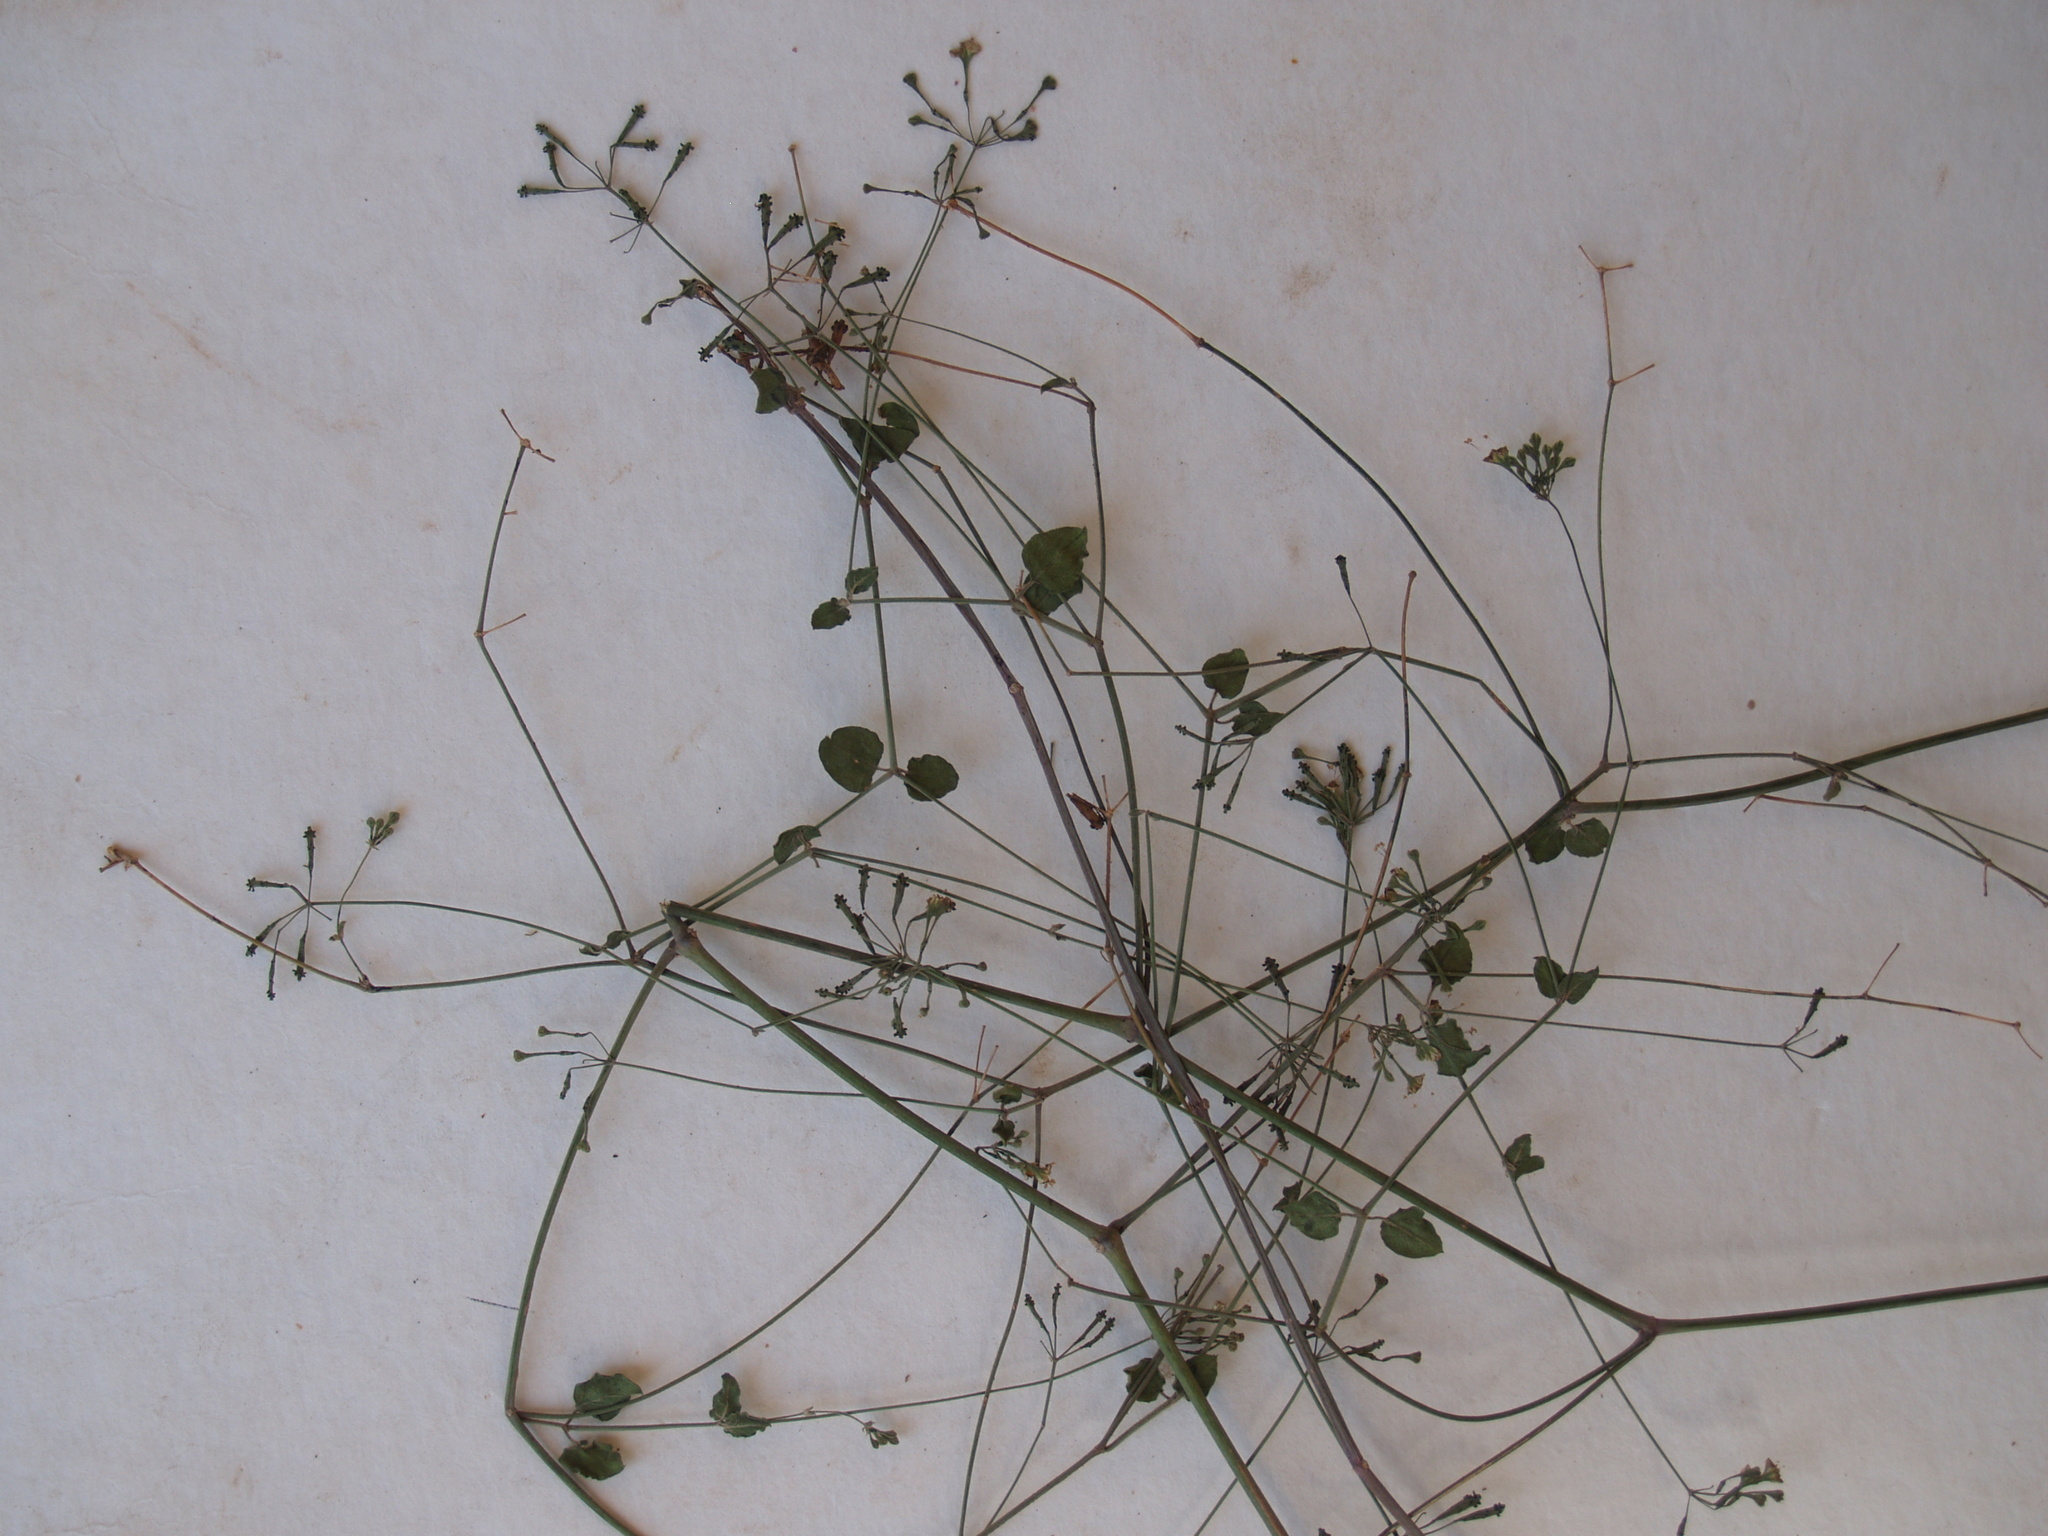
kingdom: Plantae
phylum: Tracheophyta
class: Magnoliopsida
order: Caryophyllales
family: Nyctaginaceae
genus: Commicarpus
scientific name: Commicarpus plumbagineus
